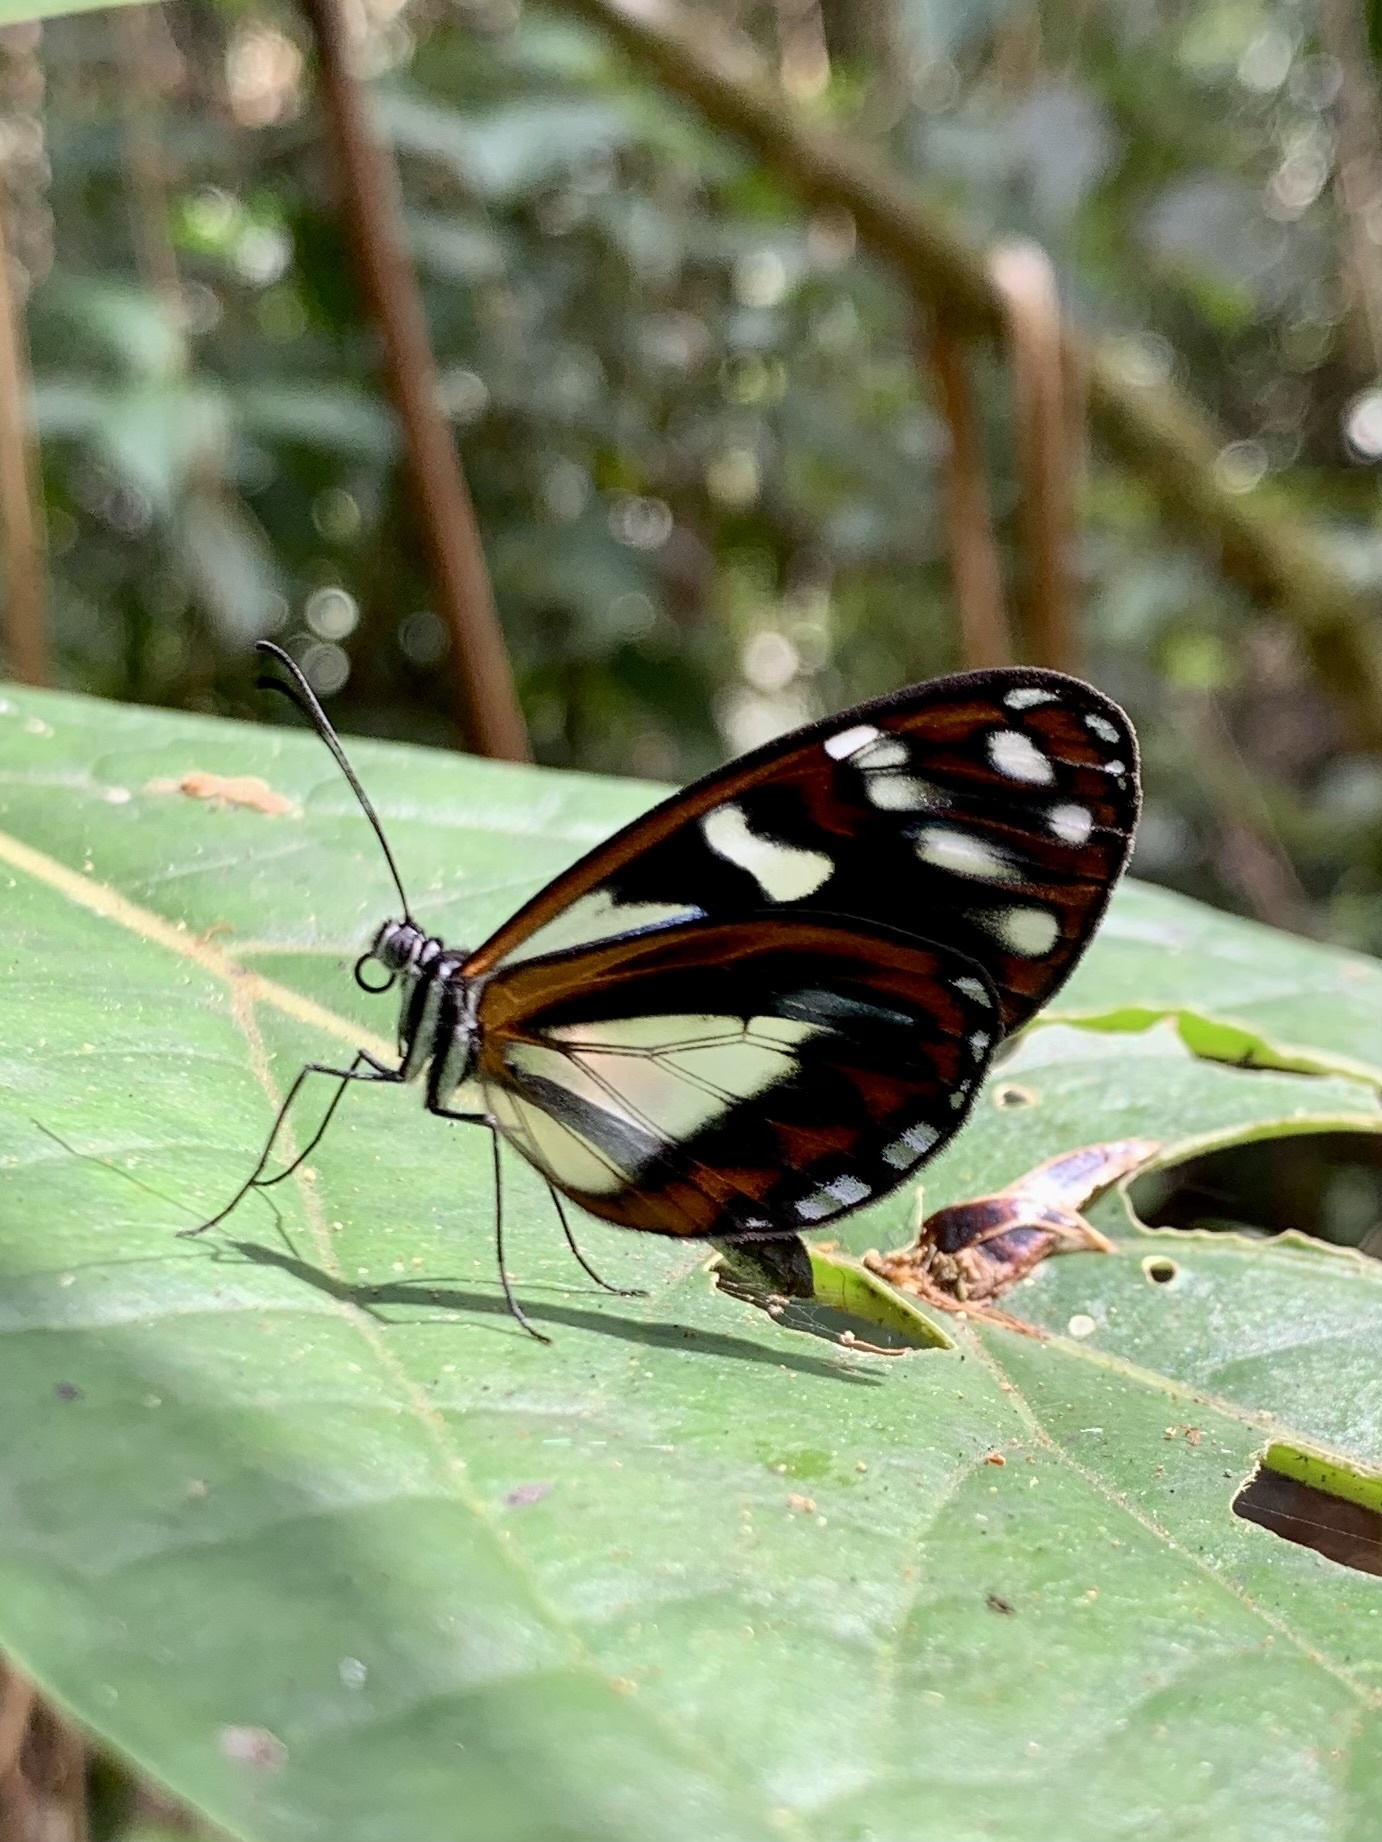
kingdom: Animalia
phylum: Arthropoda
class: Insecta
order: Lepidoptera
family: Nymphalidae
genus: Oleria
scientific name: Oleria radina
